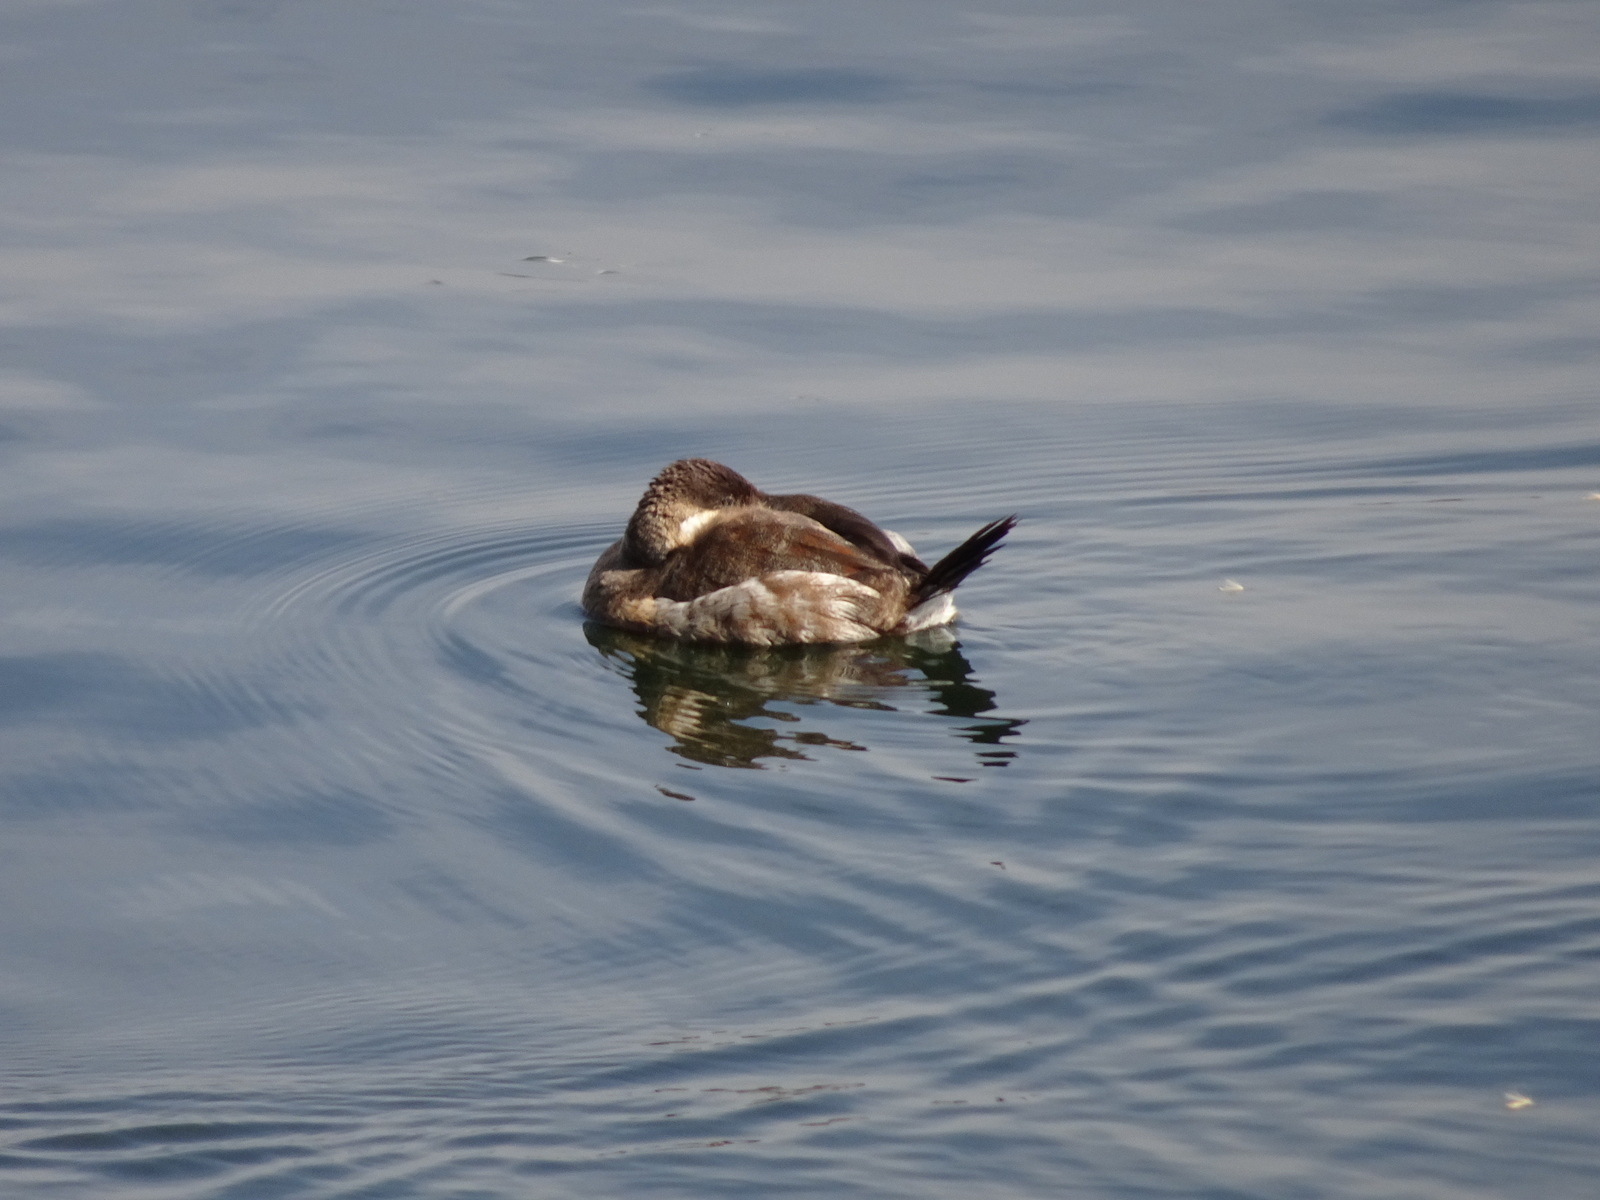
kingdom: Animalia
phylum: Chordata
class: Aves
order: Anseriformes
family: Anatidae
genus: Oxyura
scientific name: Oxyura jamaicensis
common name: Ruddy duck
